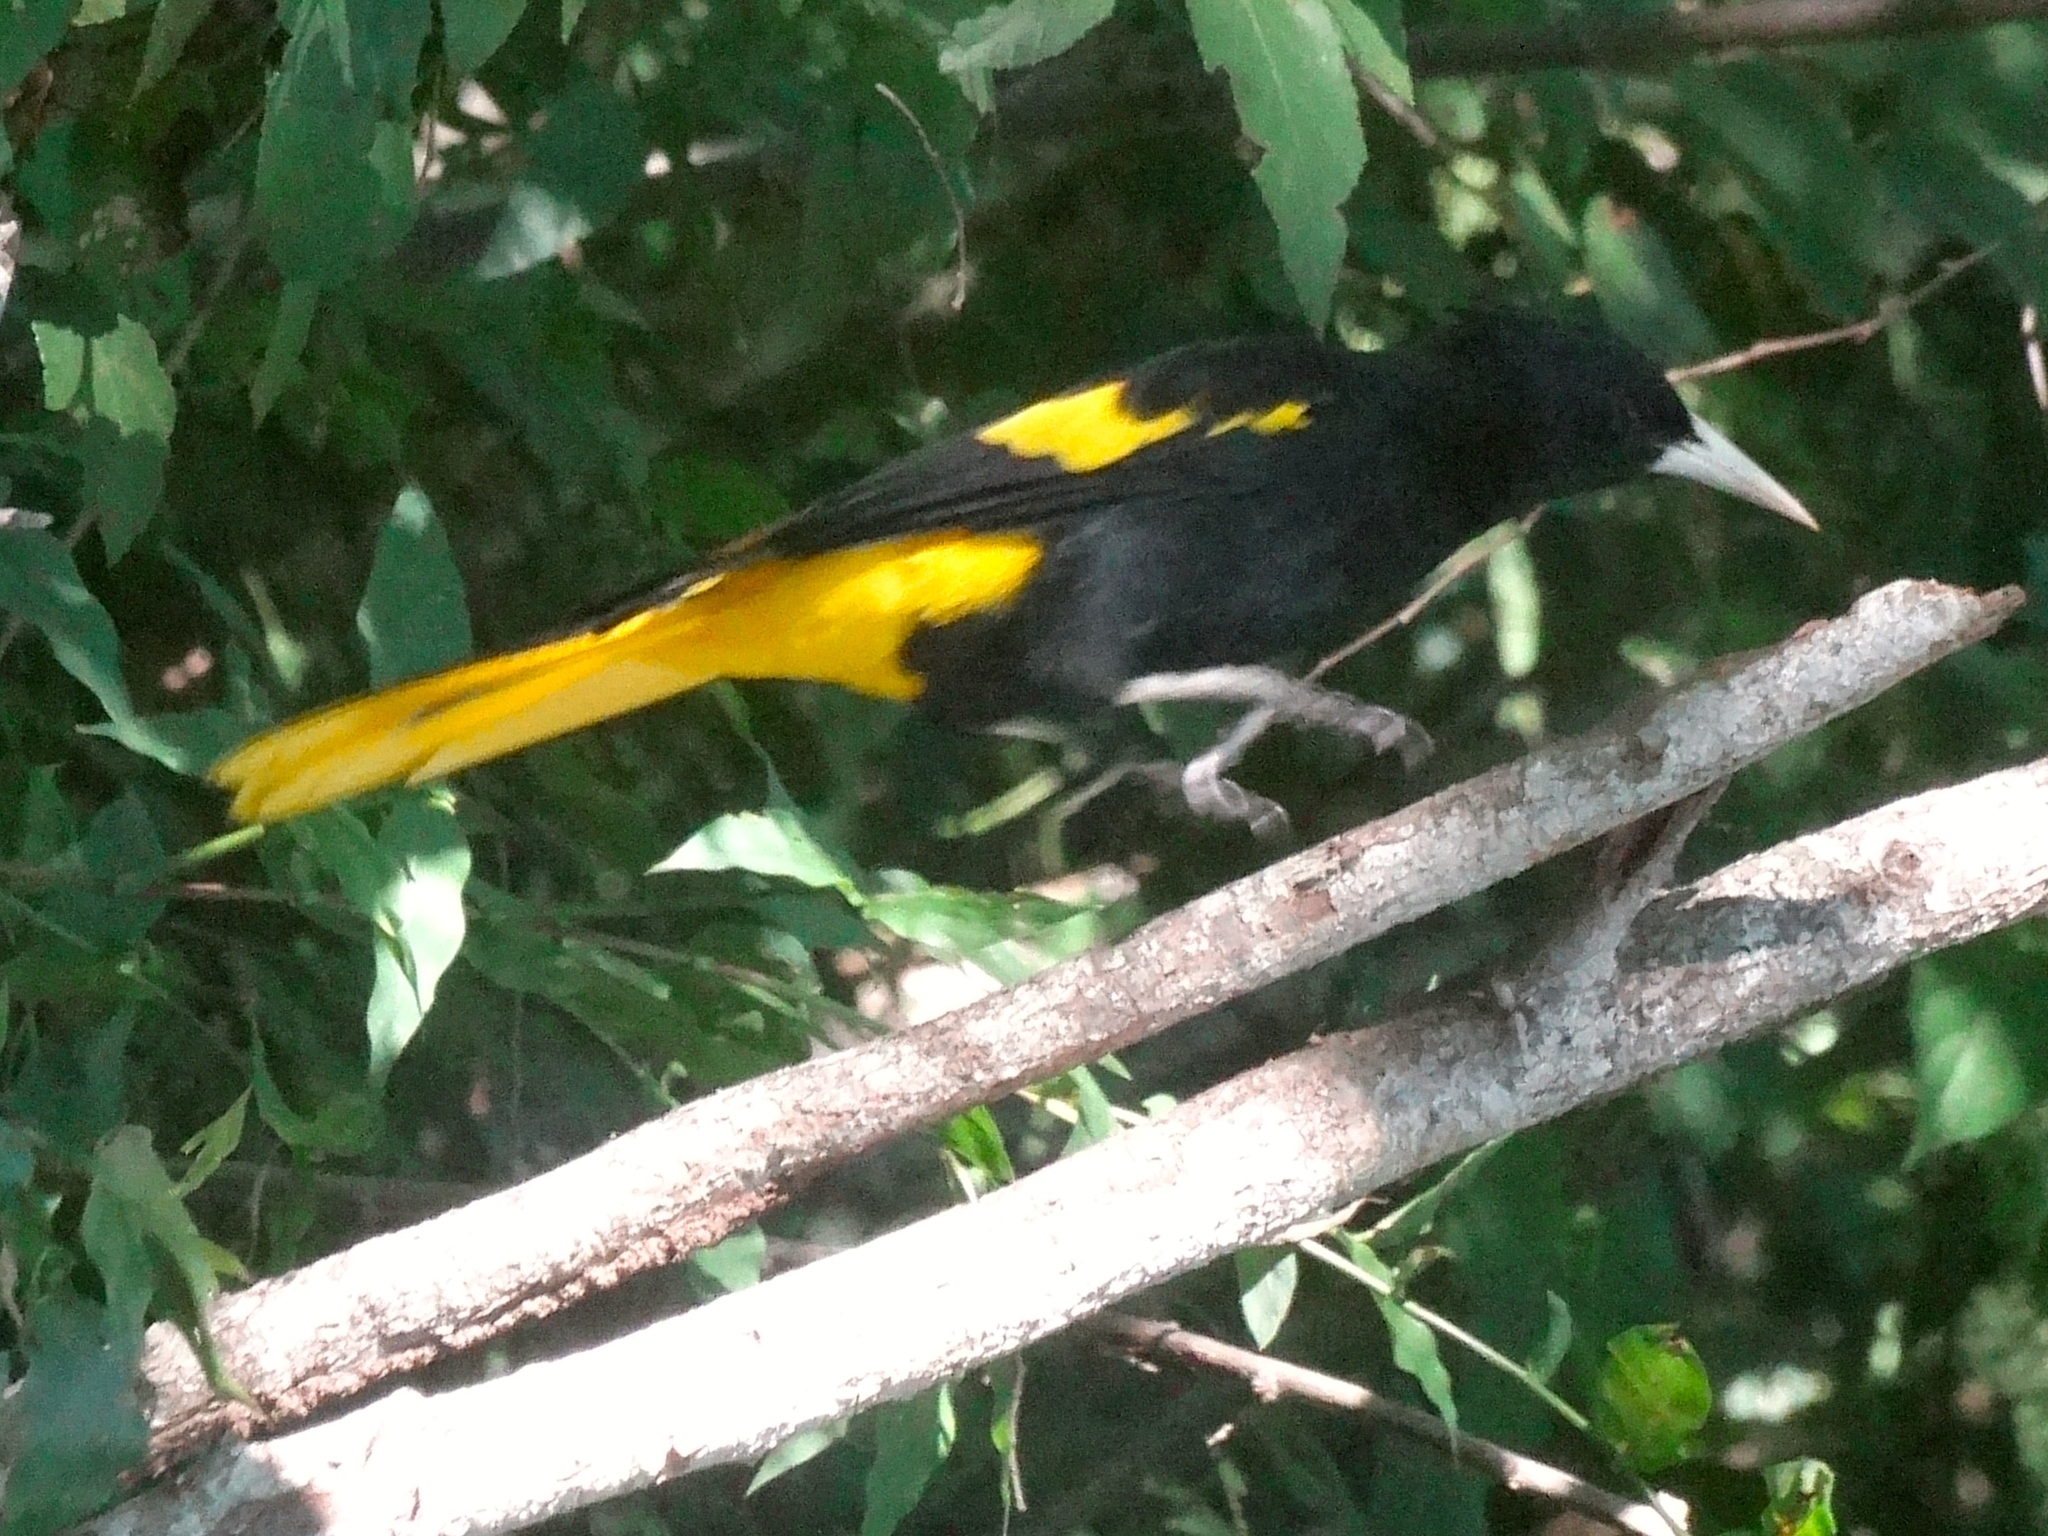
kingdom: Animalia
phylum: Chordata
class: Aves
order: Passeriformes
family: Icteridae
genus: Cacicus
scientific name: Cacicus melanicterus
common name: Yellow-winged cacique
